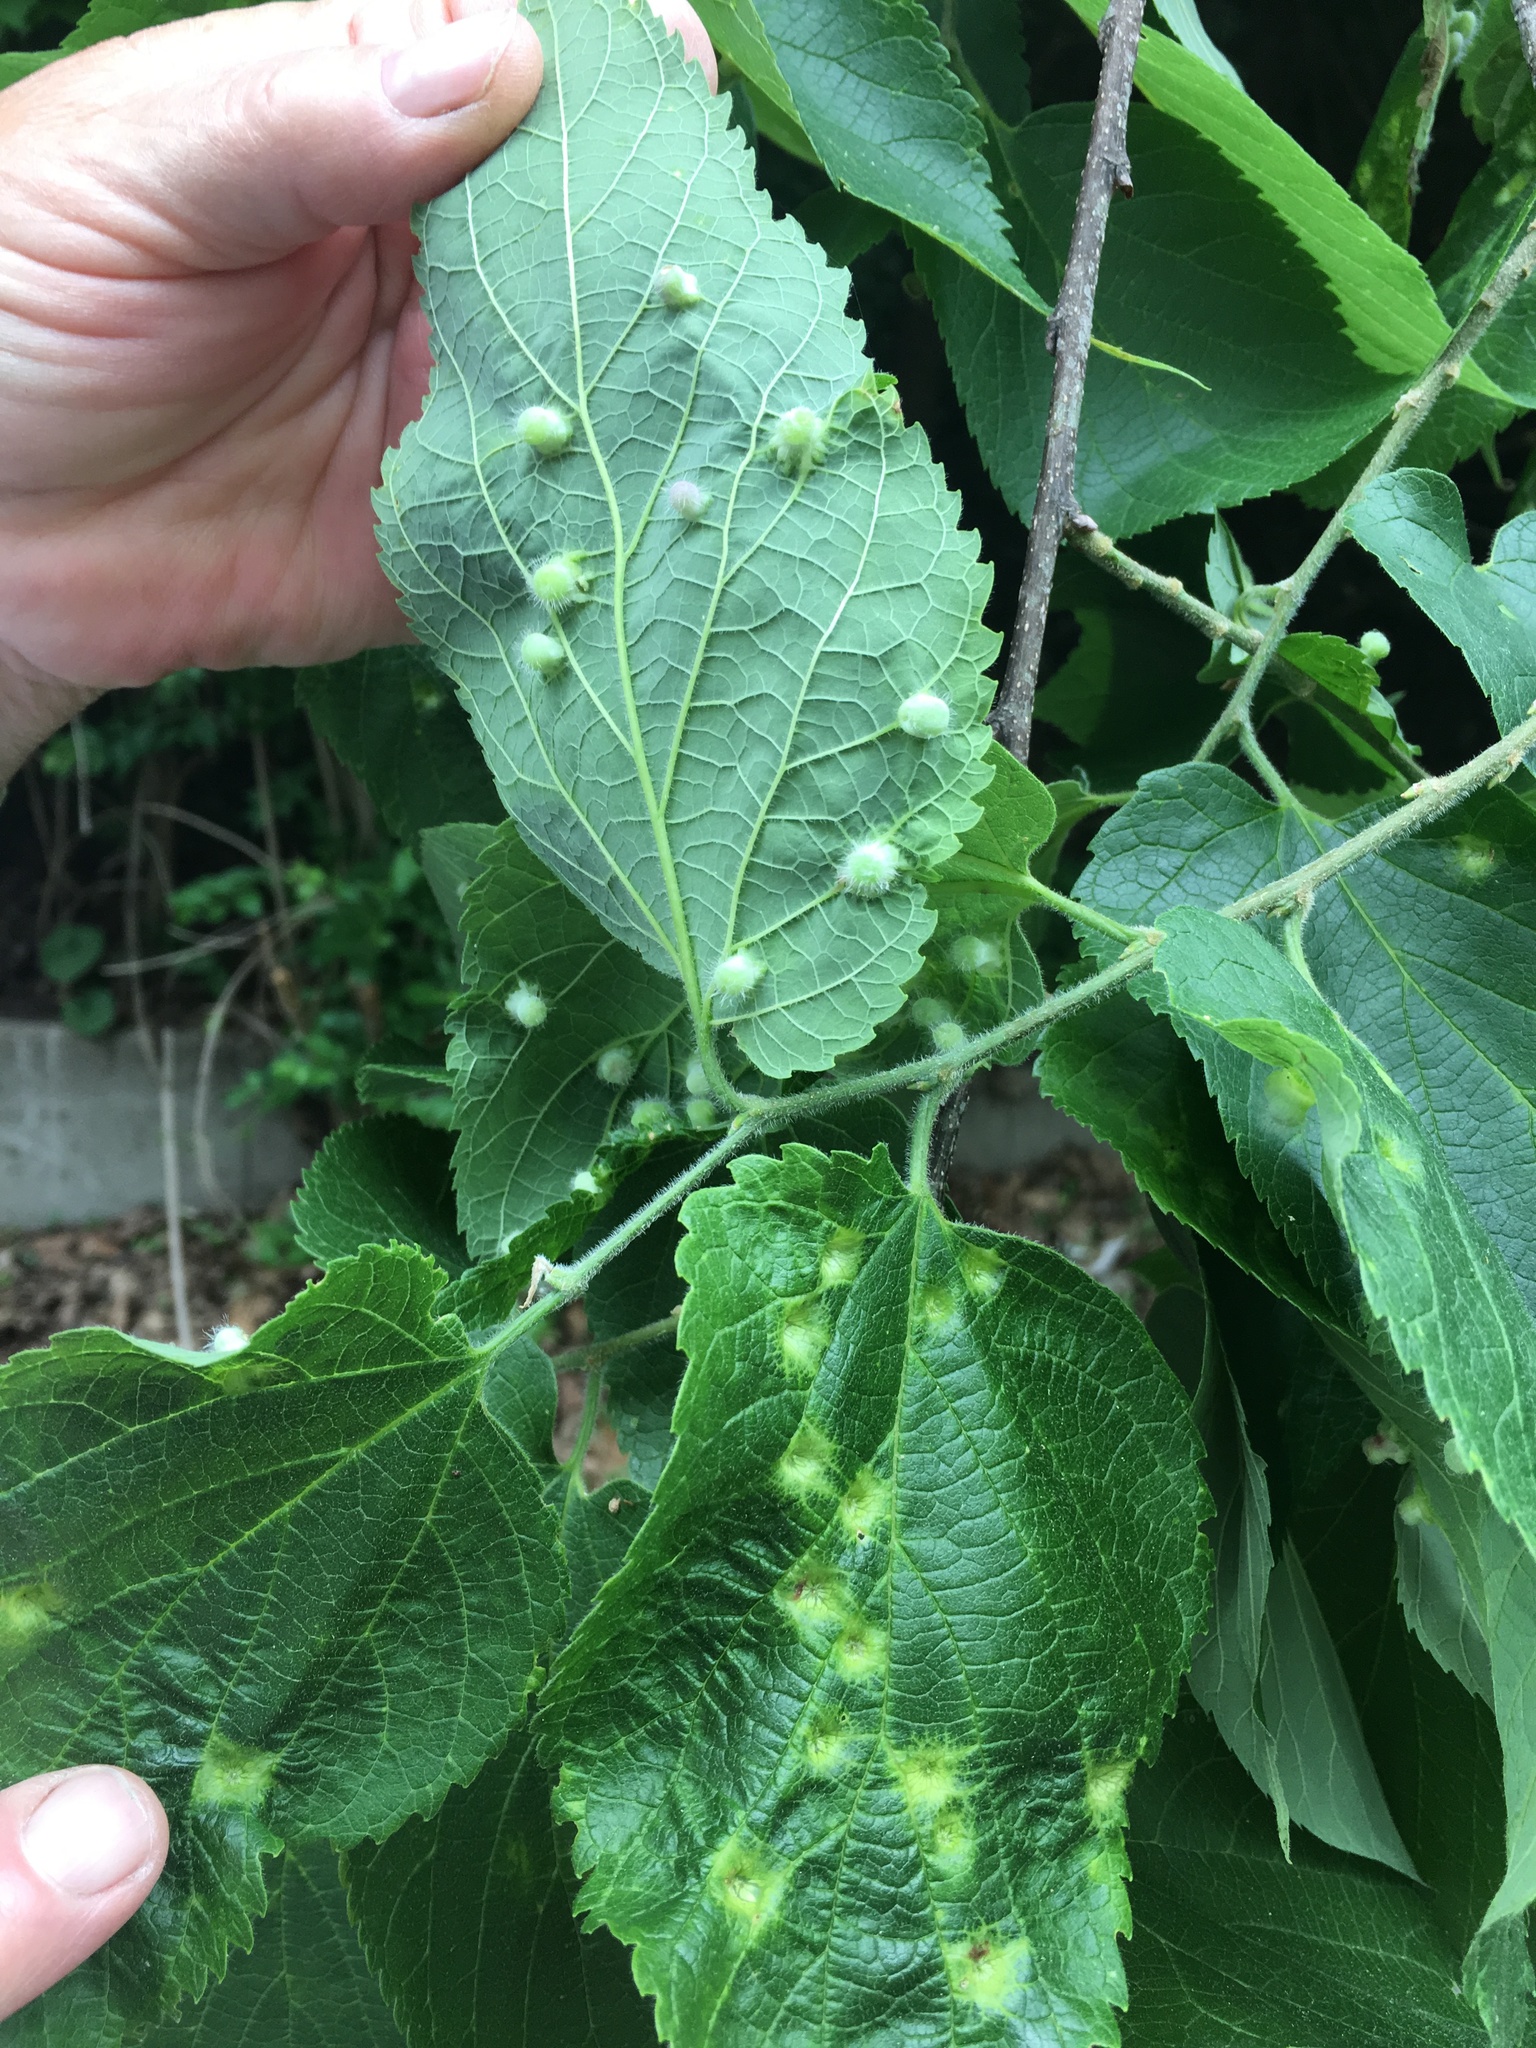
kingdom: Animalia
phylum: Arthropoda
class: Insecta
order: Hemiptera
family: Aphalaridae
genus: Pachypsylla
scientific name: Pachypsylla celtidismamma
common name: Hackberry nipplegall psyllid
